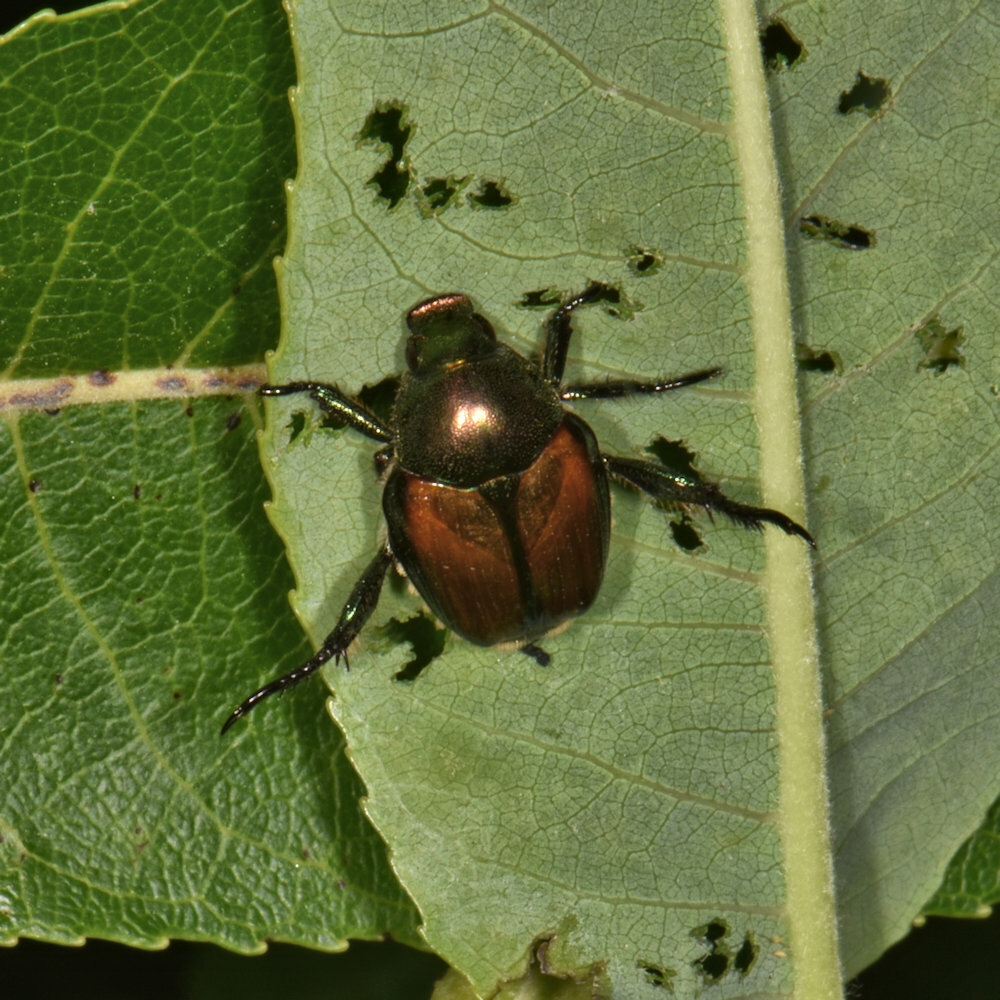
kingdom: Animalia
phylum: Arthropoda
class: Insecta
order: Coleoptera
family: Scarabaeidae
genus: Popillia
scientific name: Popillia japonica
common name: Japanese beetle
